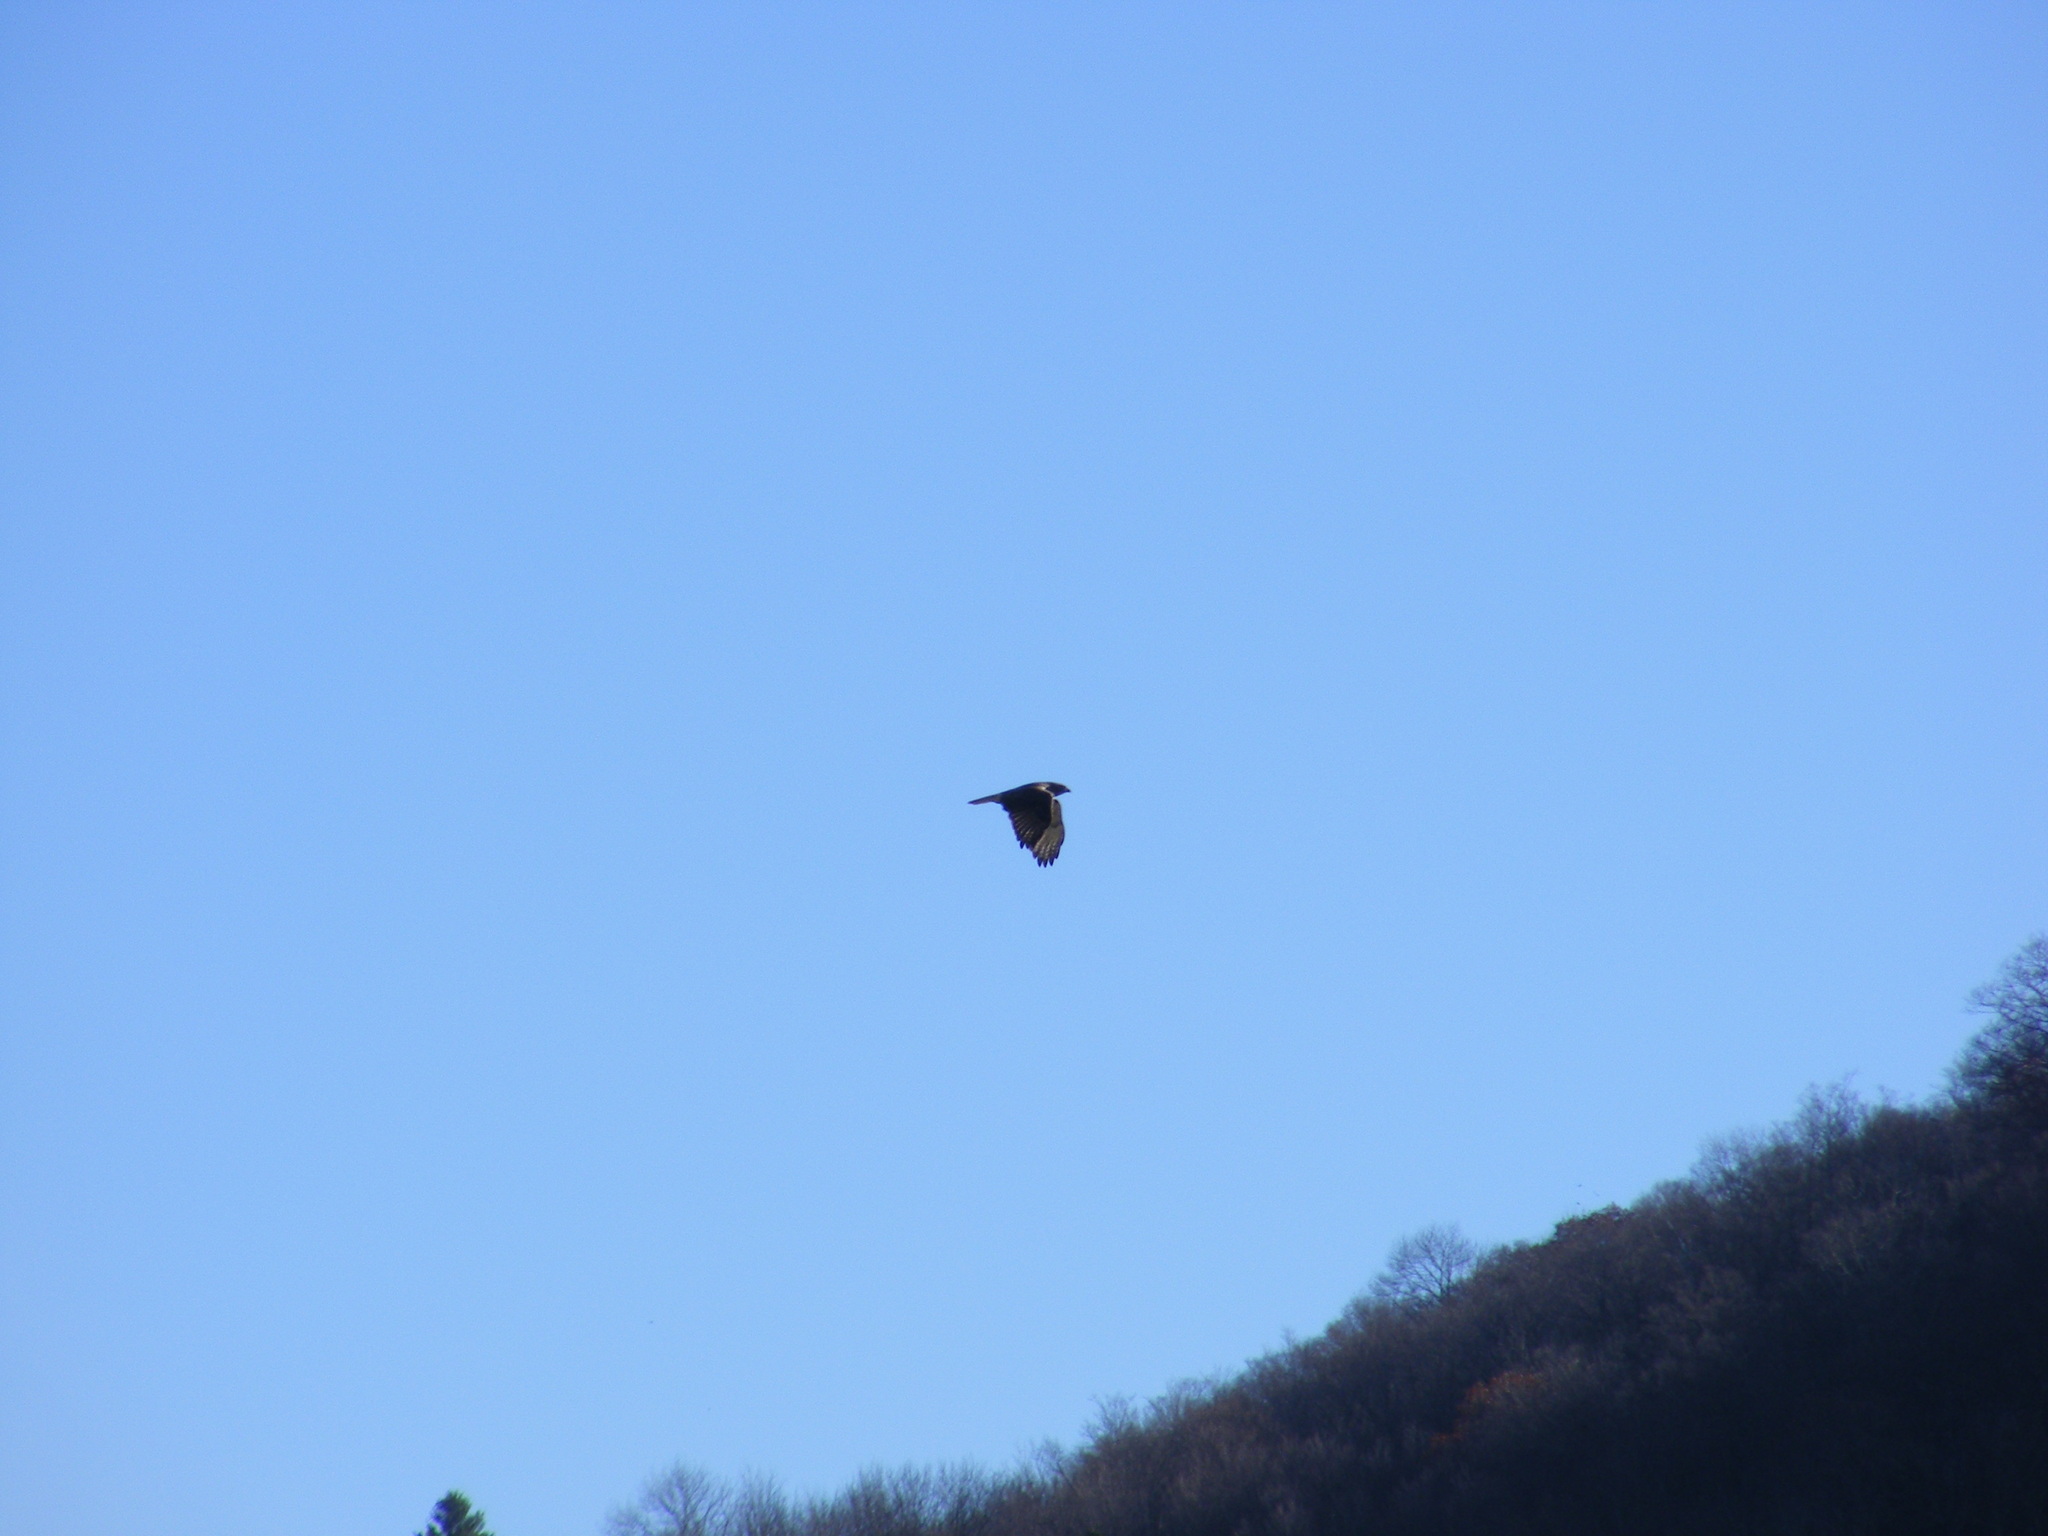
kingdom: Animalia
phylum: Chordata
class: Aves
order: Accipitriformes
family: Accipitridae
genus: Buteo
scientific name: Buteo jamaicensis
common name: Red-tailed hawk
